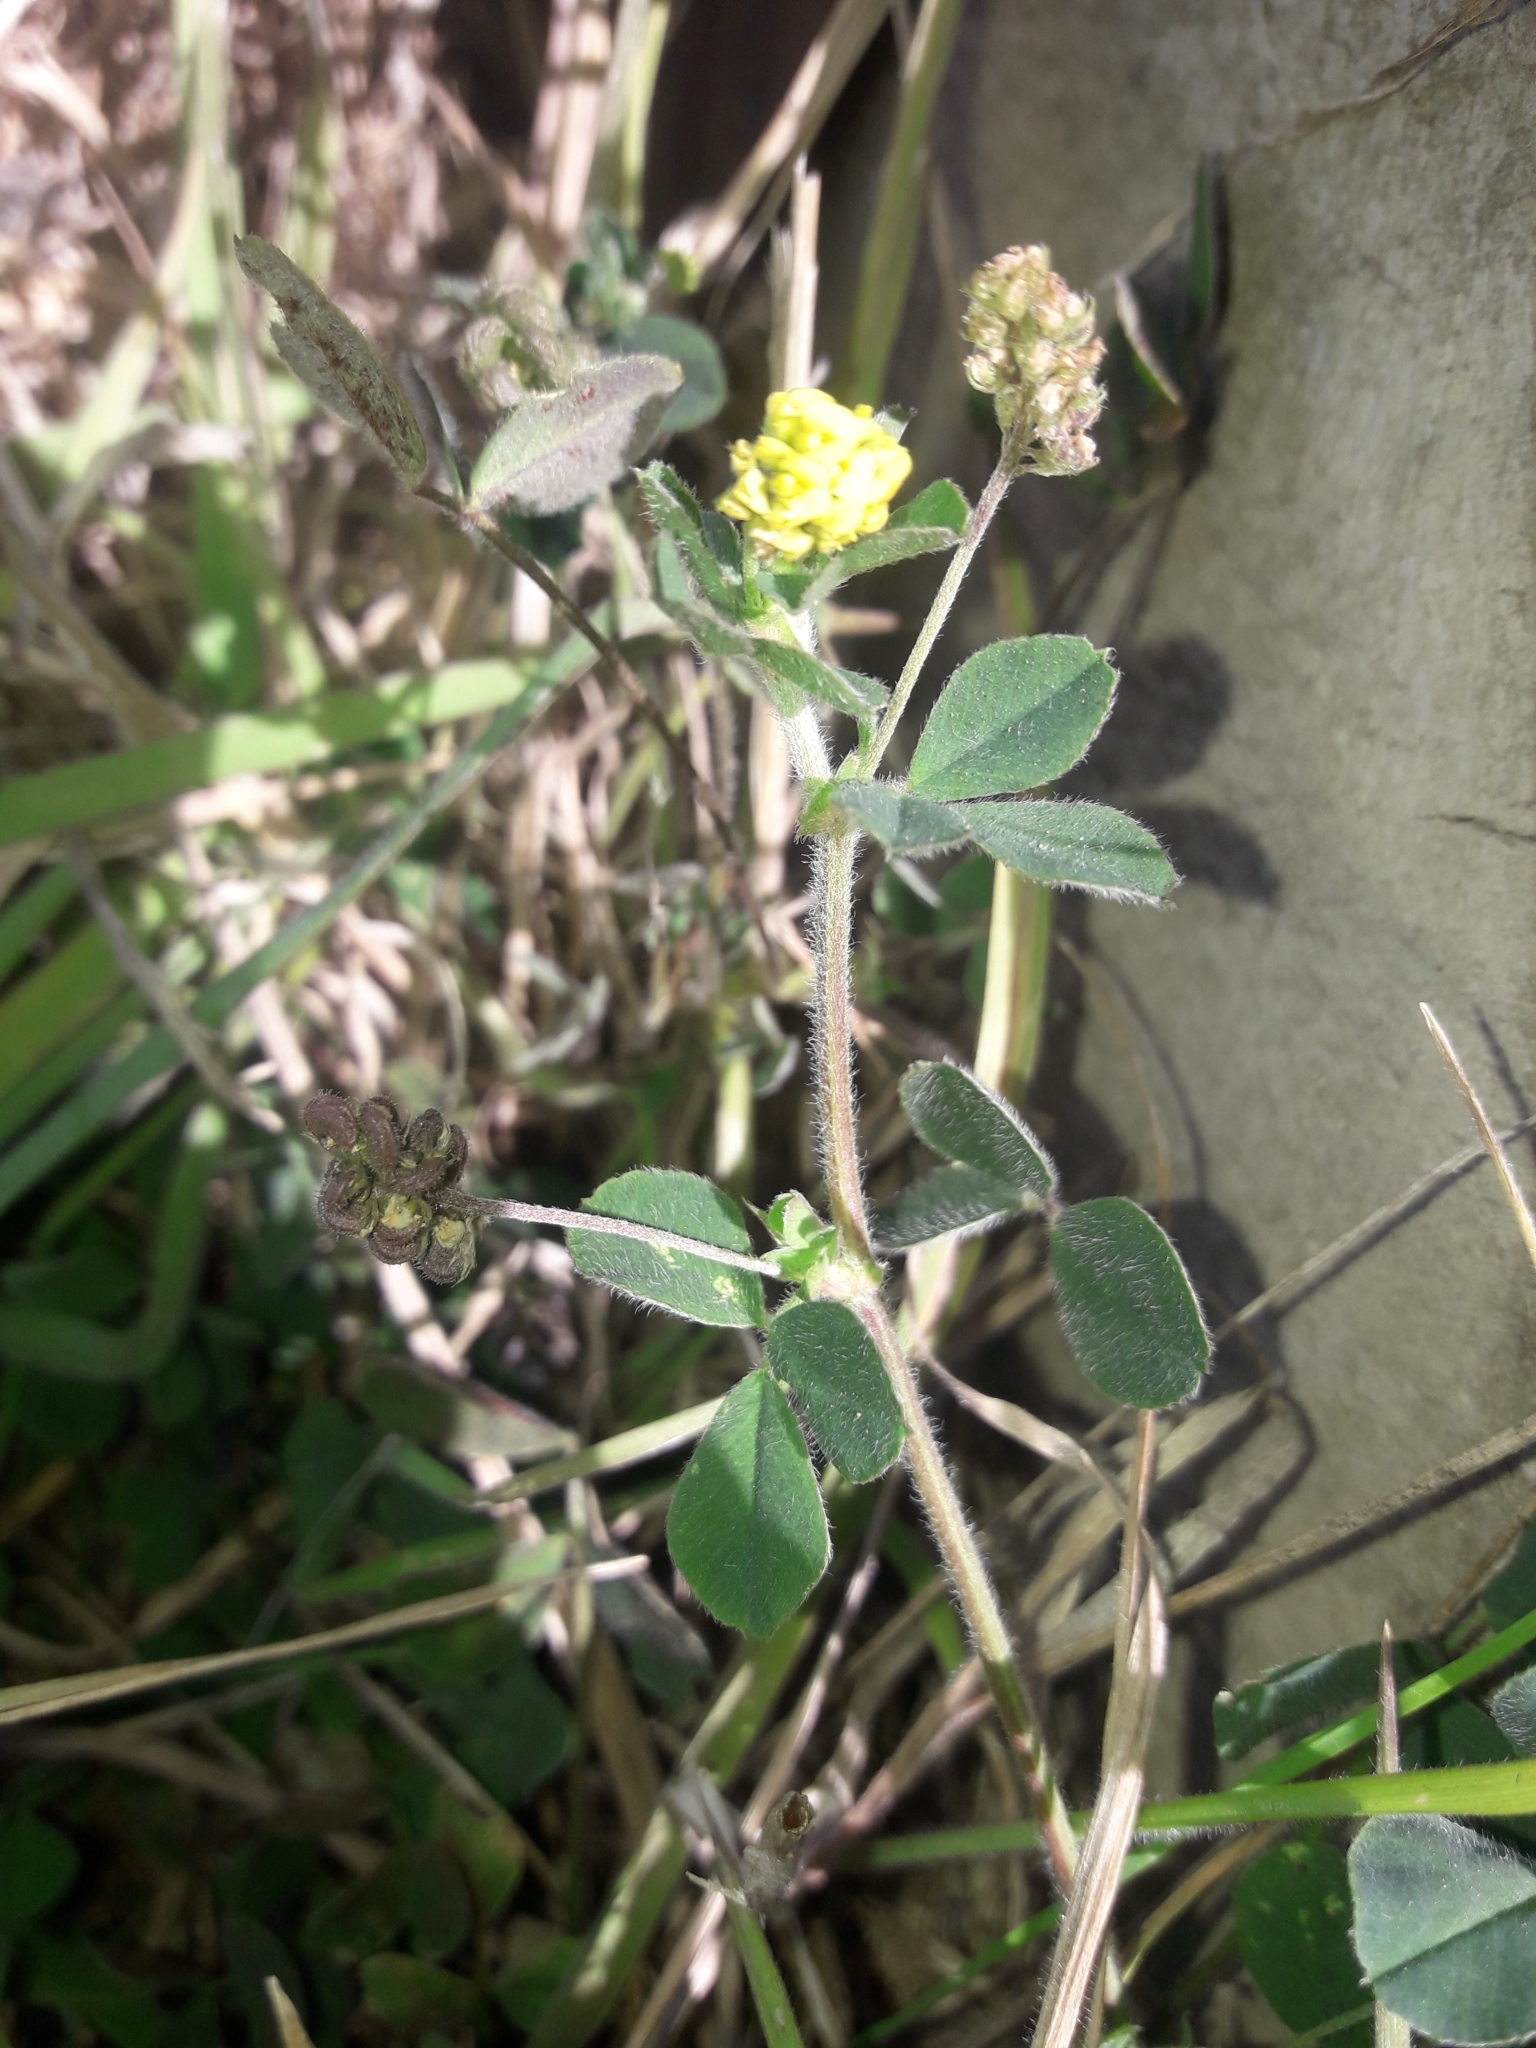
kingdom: Plantae
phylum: Tracheophyta
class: Magnoliopsida
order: Fabales
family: Fabaceae
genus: Medicago
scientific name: Medicago lupulina
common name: Black medick
